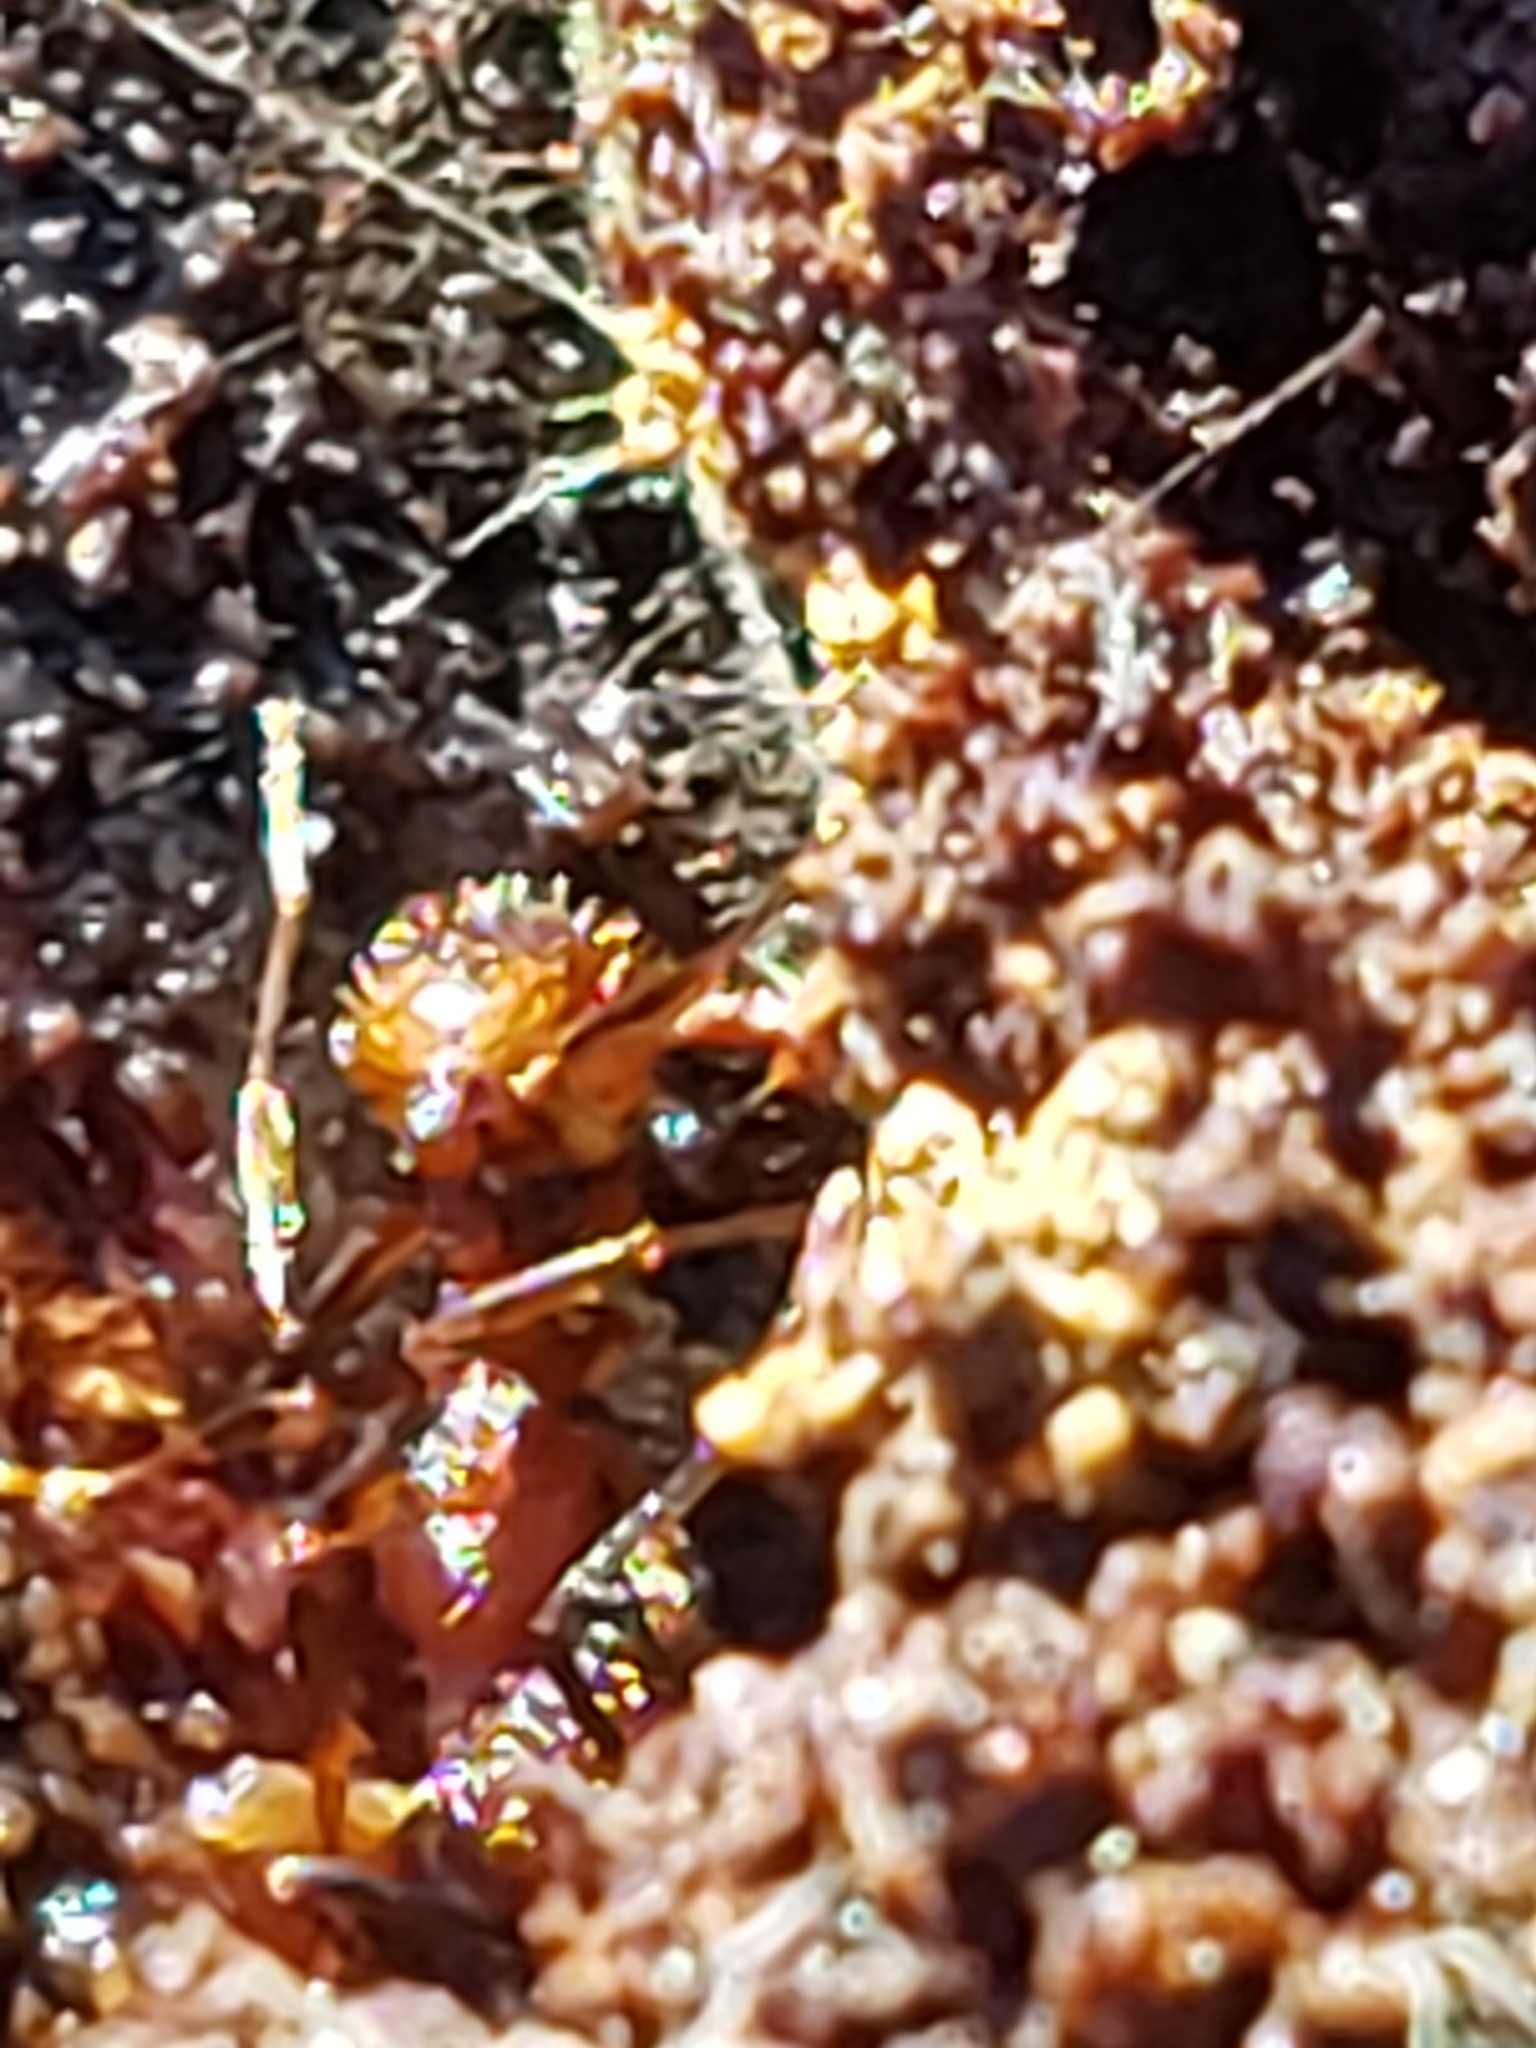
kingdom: Animalia
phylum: Arthropoda
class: Insecta
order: Hymenoptera
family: Formicidae
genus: Aphaenogaster
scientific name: Aphaenogaster fulva
